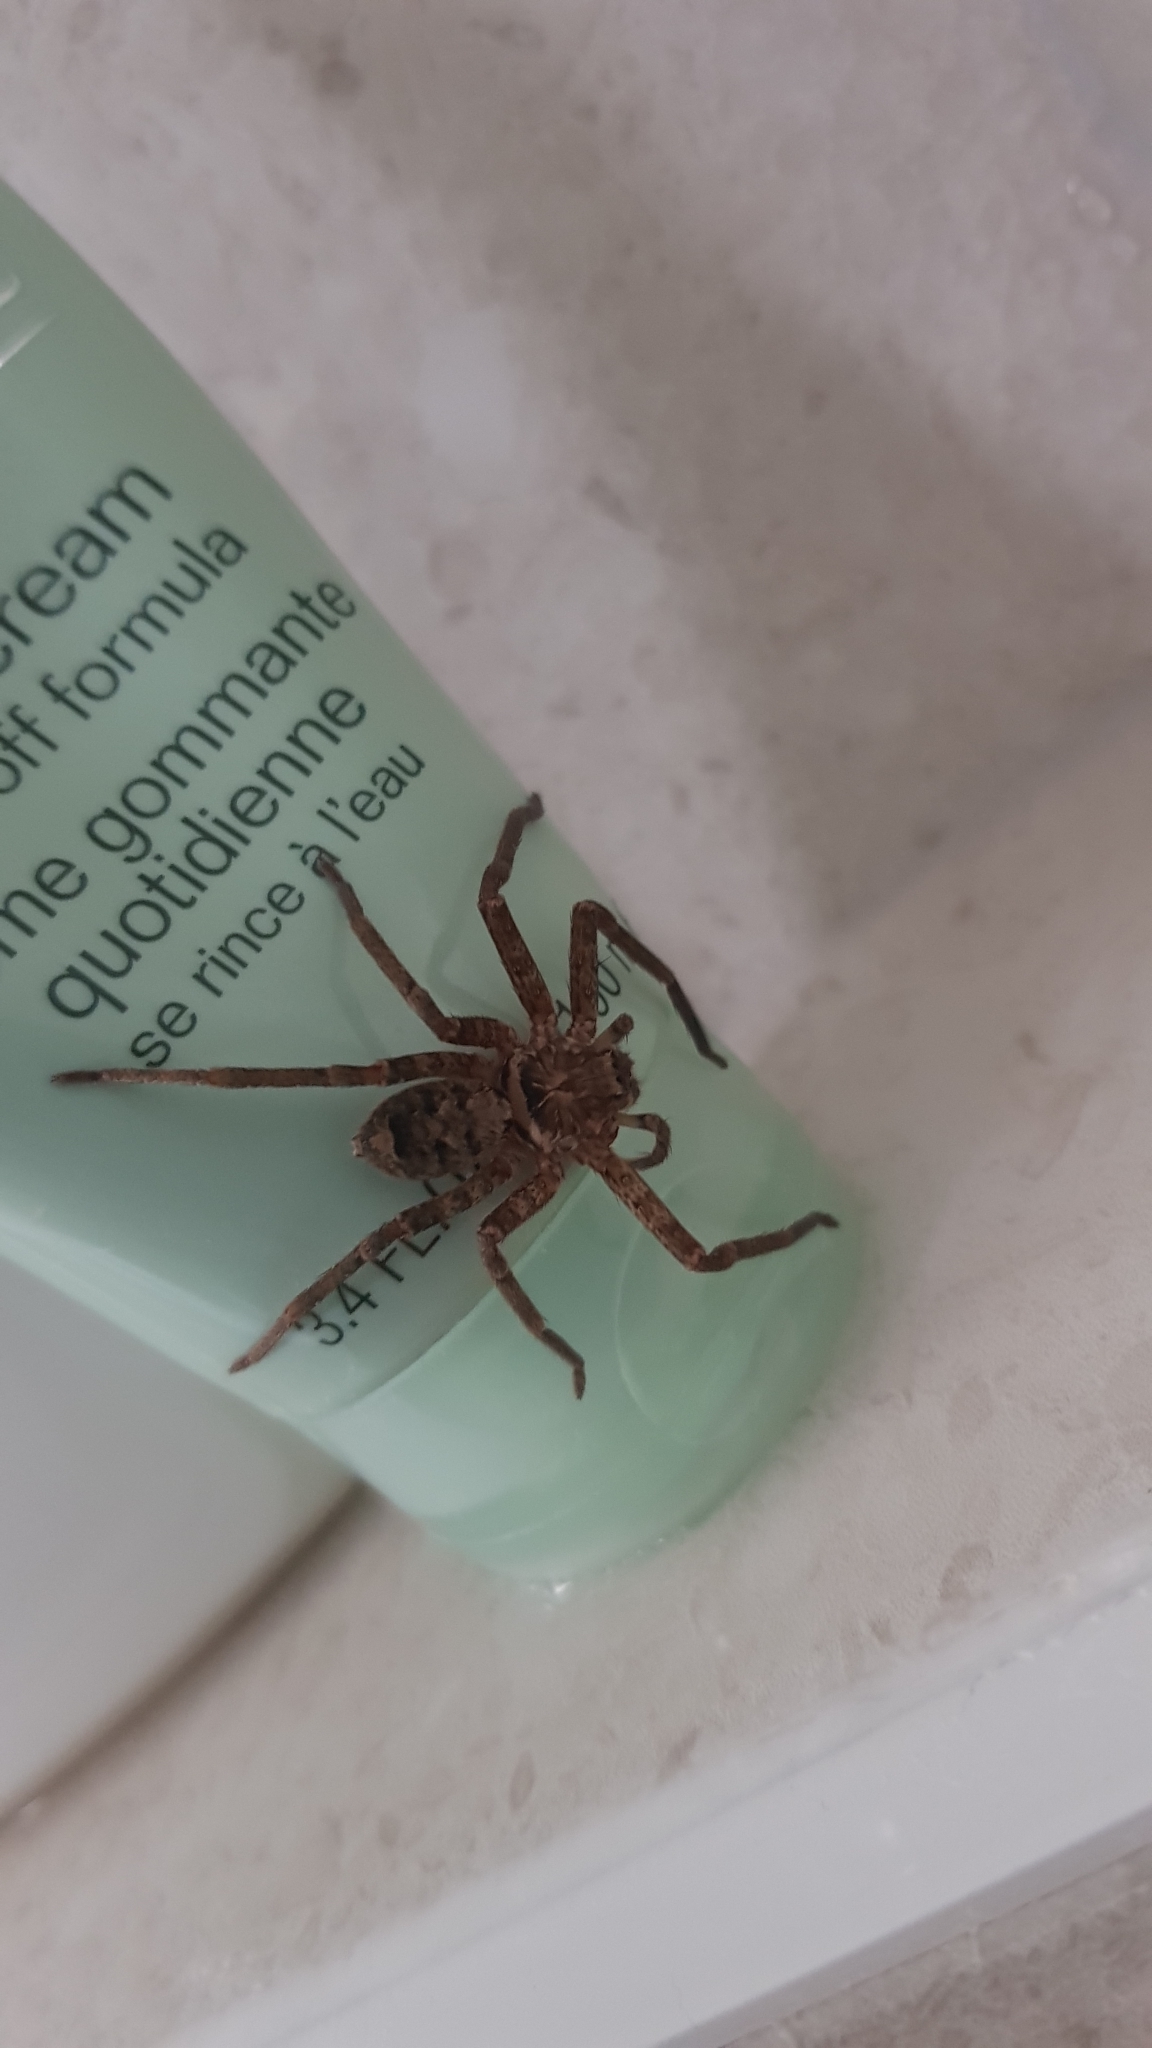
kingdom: Animalia
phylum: Arthropoda
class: Arachnida
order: Araneae
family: Sparassidae
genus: Heteropoda
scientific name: Heteropoda jugulans
